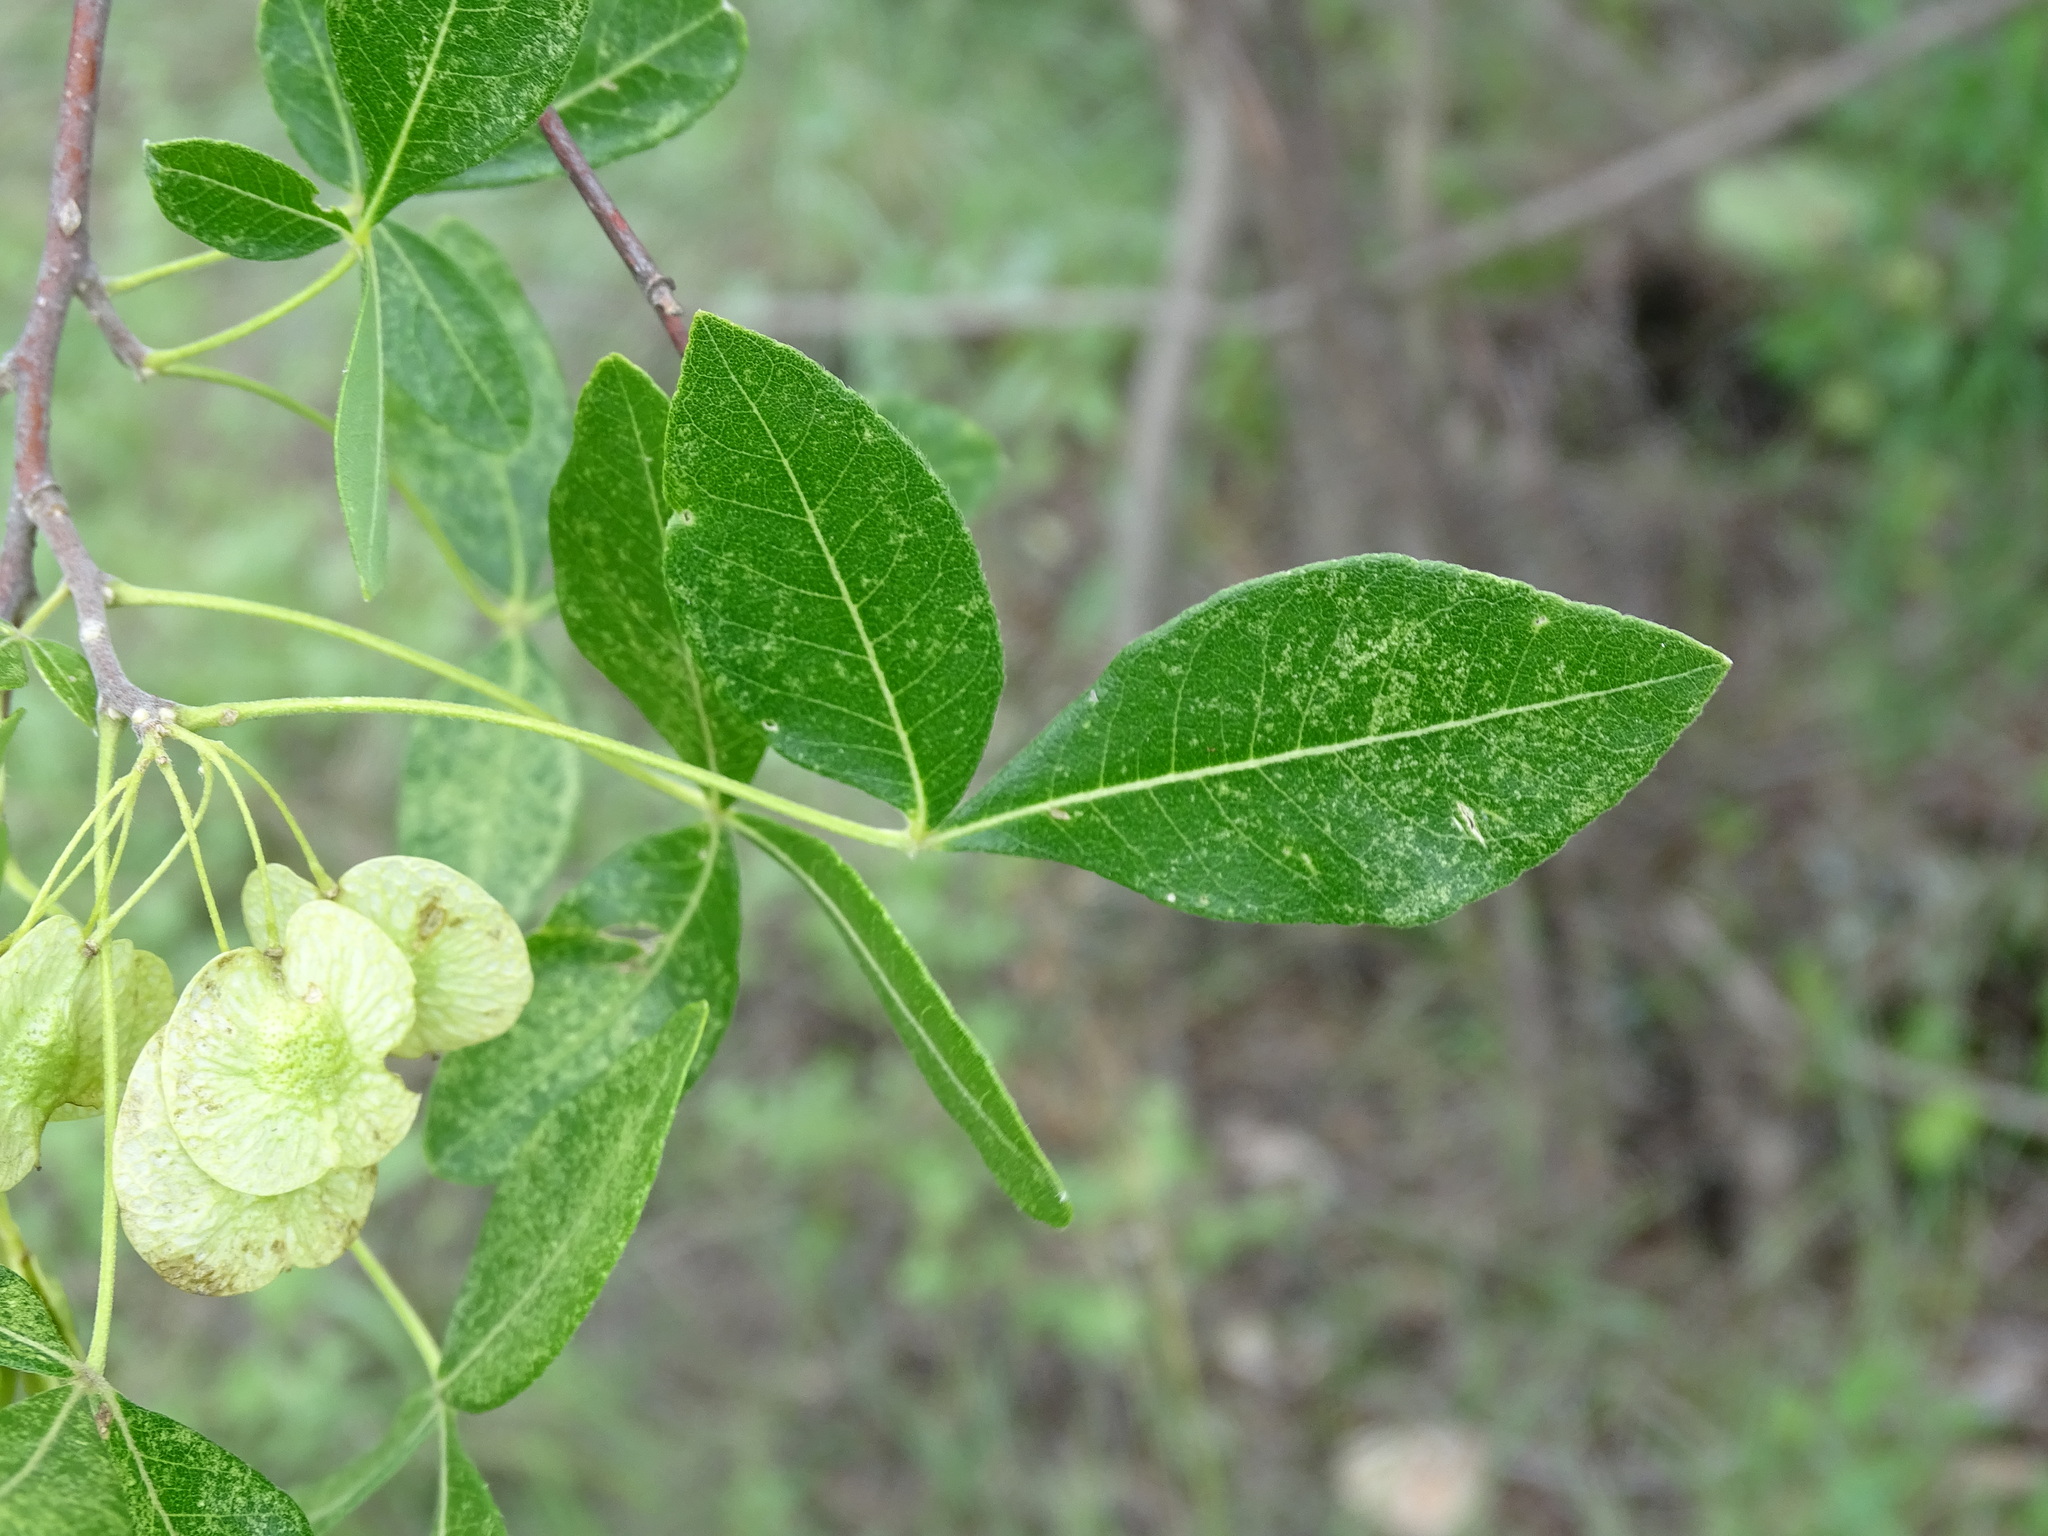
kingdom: Plantae
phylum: Tracheophyta
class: Magnoliopsida
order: Sapindales
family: Rutaceae
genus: Ptelea
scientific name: Ptelea trifoliata
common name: Common hop-tree
